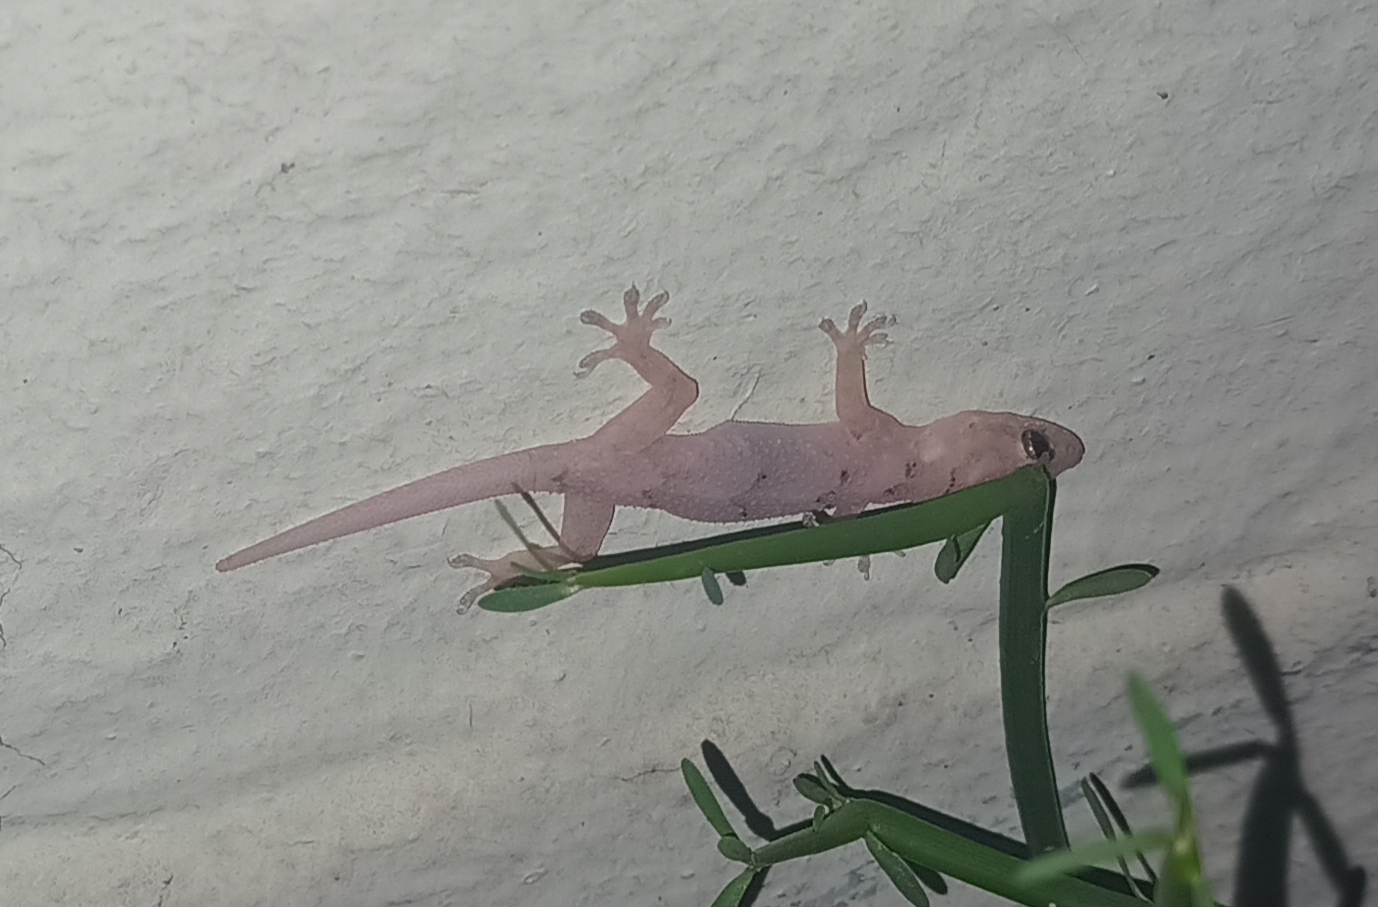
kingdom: Animalia
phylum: Chordata
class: Squamata
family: Gekkonidae
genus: Hemidactylus
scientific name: Hemidactylus mabouia
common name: House gecko
